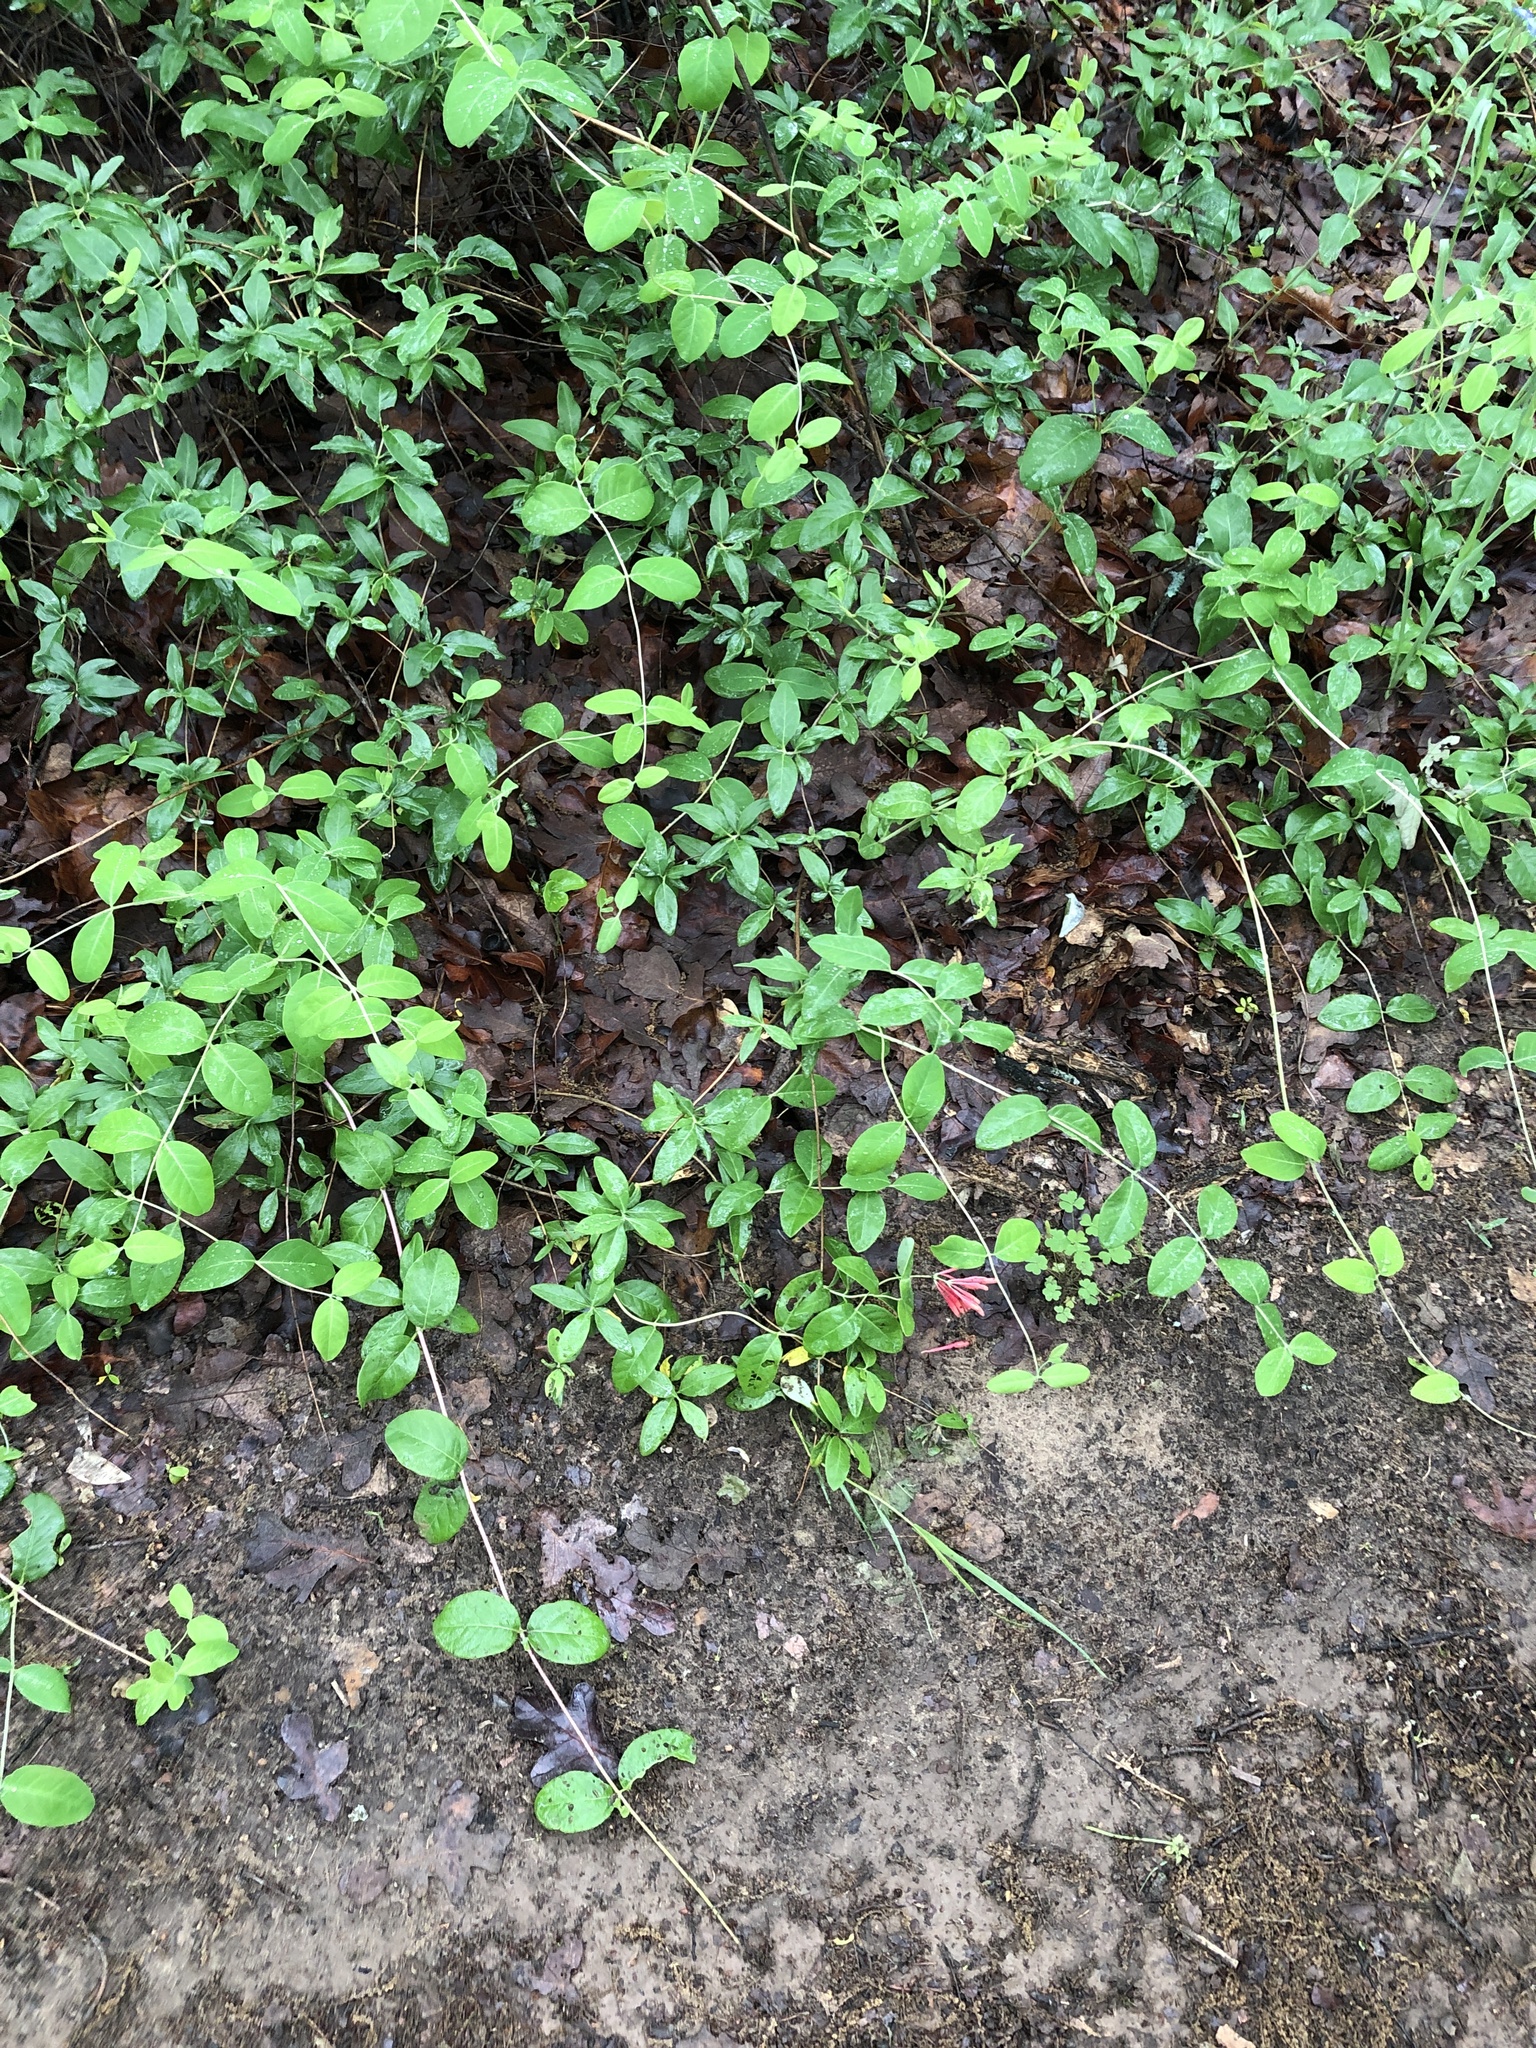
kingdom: Plantae
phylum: Tracheophyta
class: Magnoliopsida
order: Dipsacales
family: Caprifoliaceae
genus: Lonicera
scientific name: Lonicera sempervirens
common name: Coral honeysuckle
